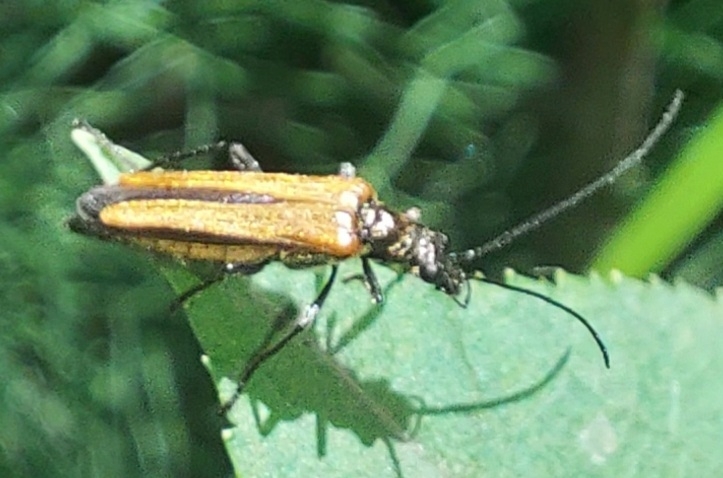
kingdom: Animalia
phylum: Arthropoda
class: Insecta
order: Coleoptera
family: Oedemeridae
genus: Oedemera
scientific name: Oedemera femorata
